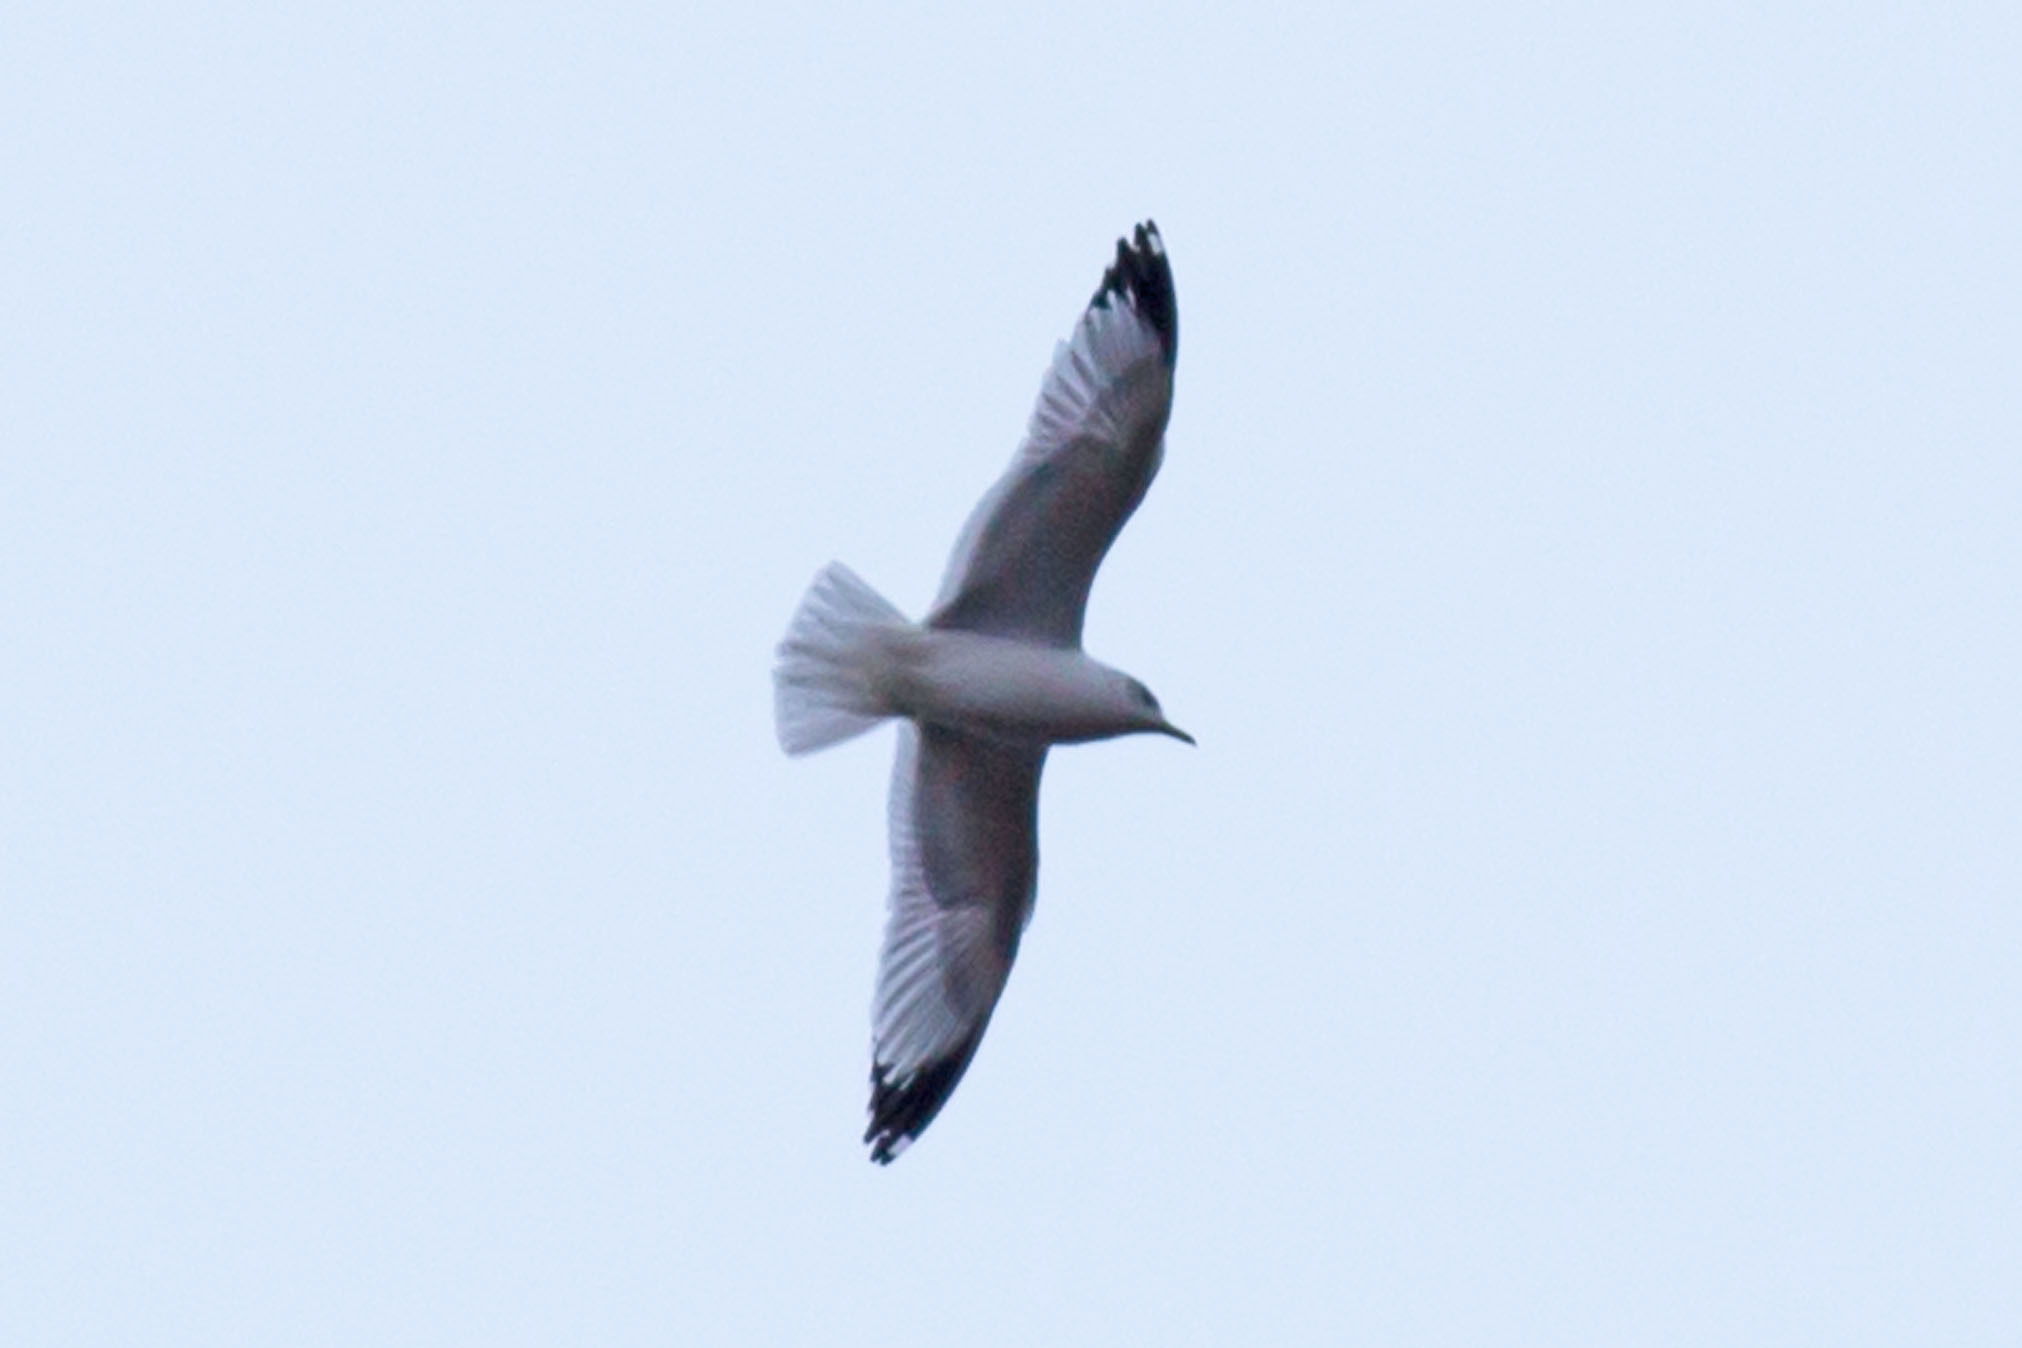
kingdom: Animalia
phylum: Chordata
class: Aves
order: Charadriiformes
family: Laridae
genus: Larus
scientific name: Larus delawarensis
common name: Ring-billed gull
